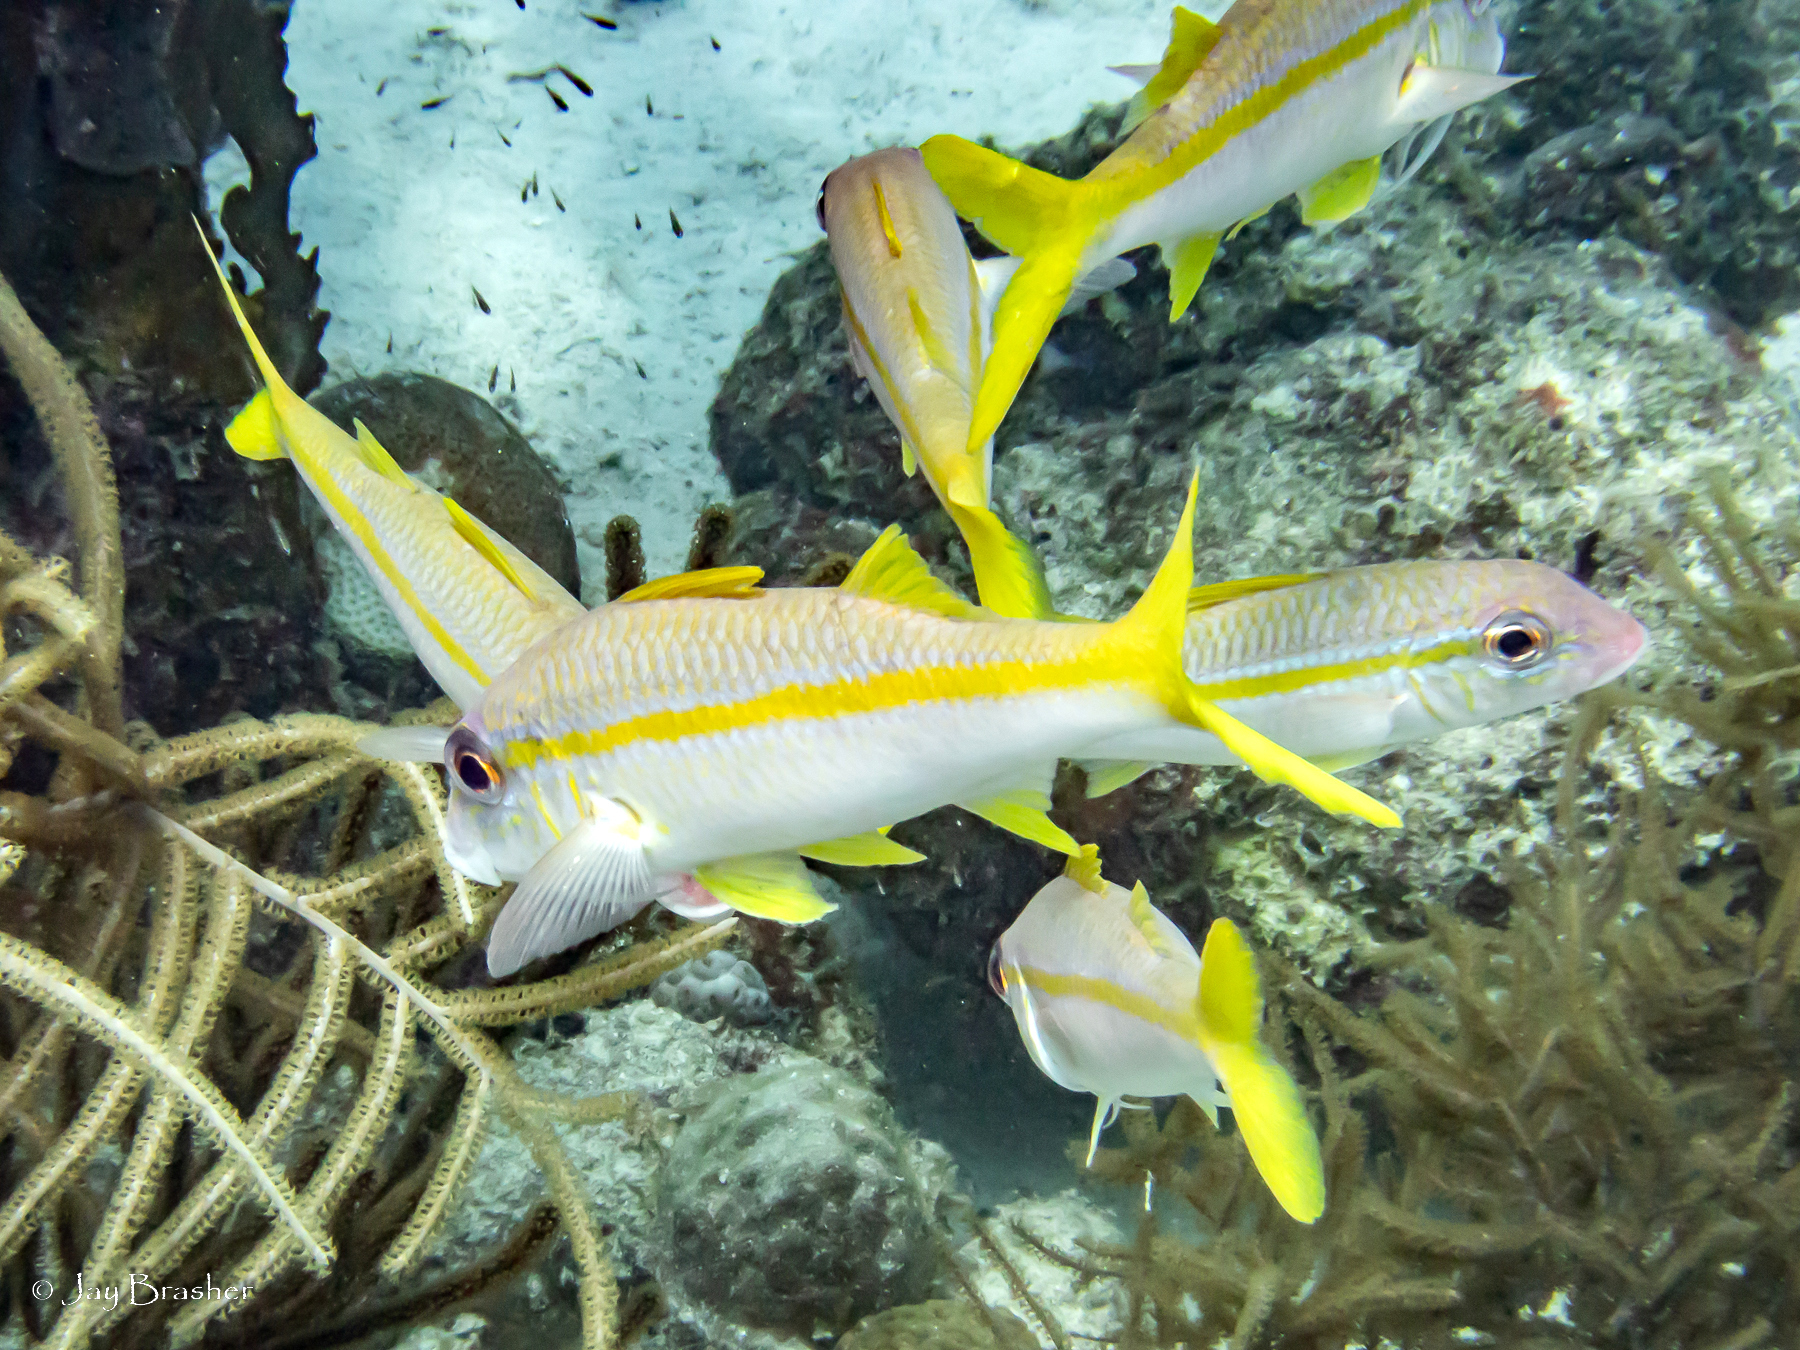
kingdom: Animalia
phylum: Chordata
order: Perciformes
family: Mullidae
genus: Mulloidichthys
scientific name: Mulloidichthys martinicus
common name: Yellow goatfish
